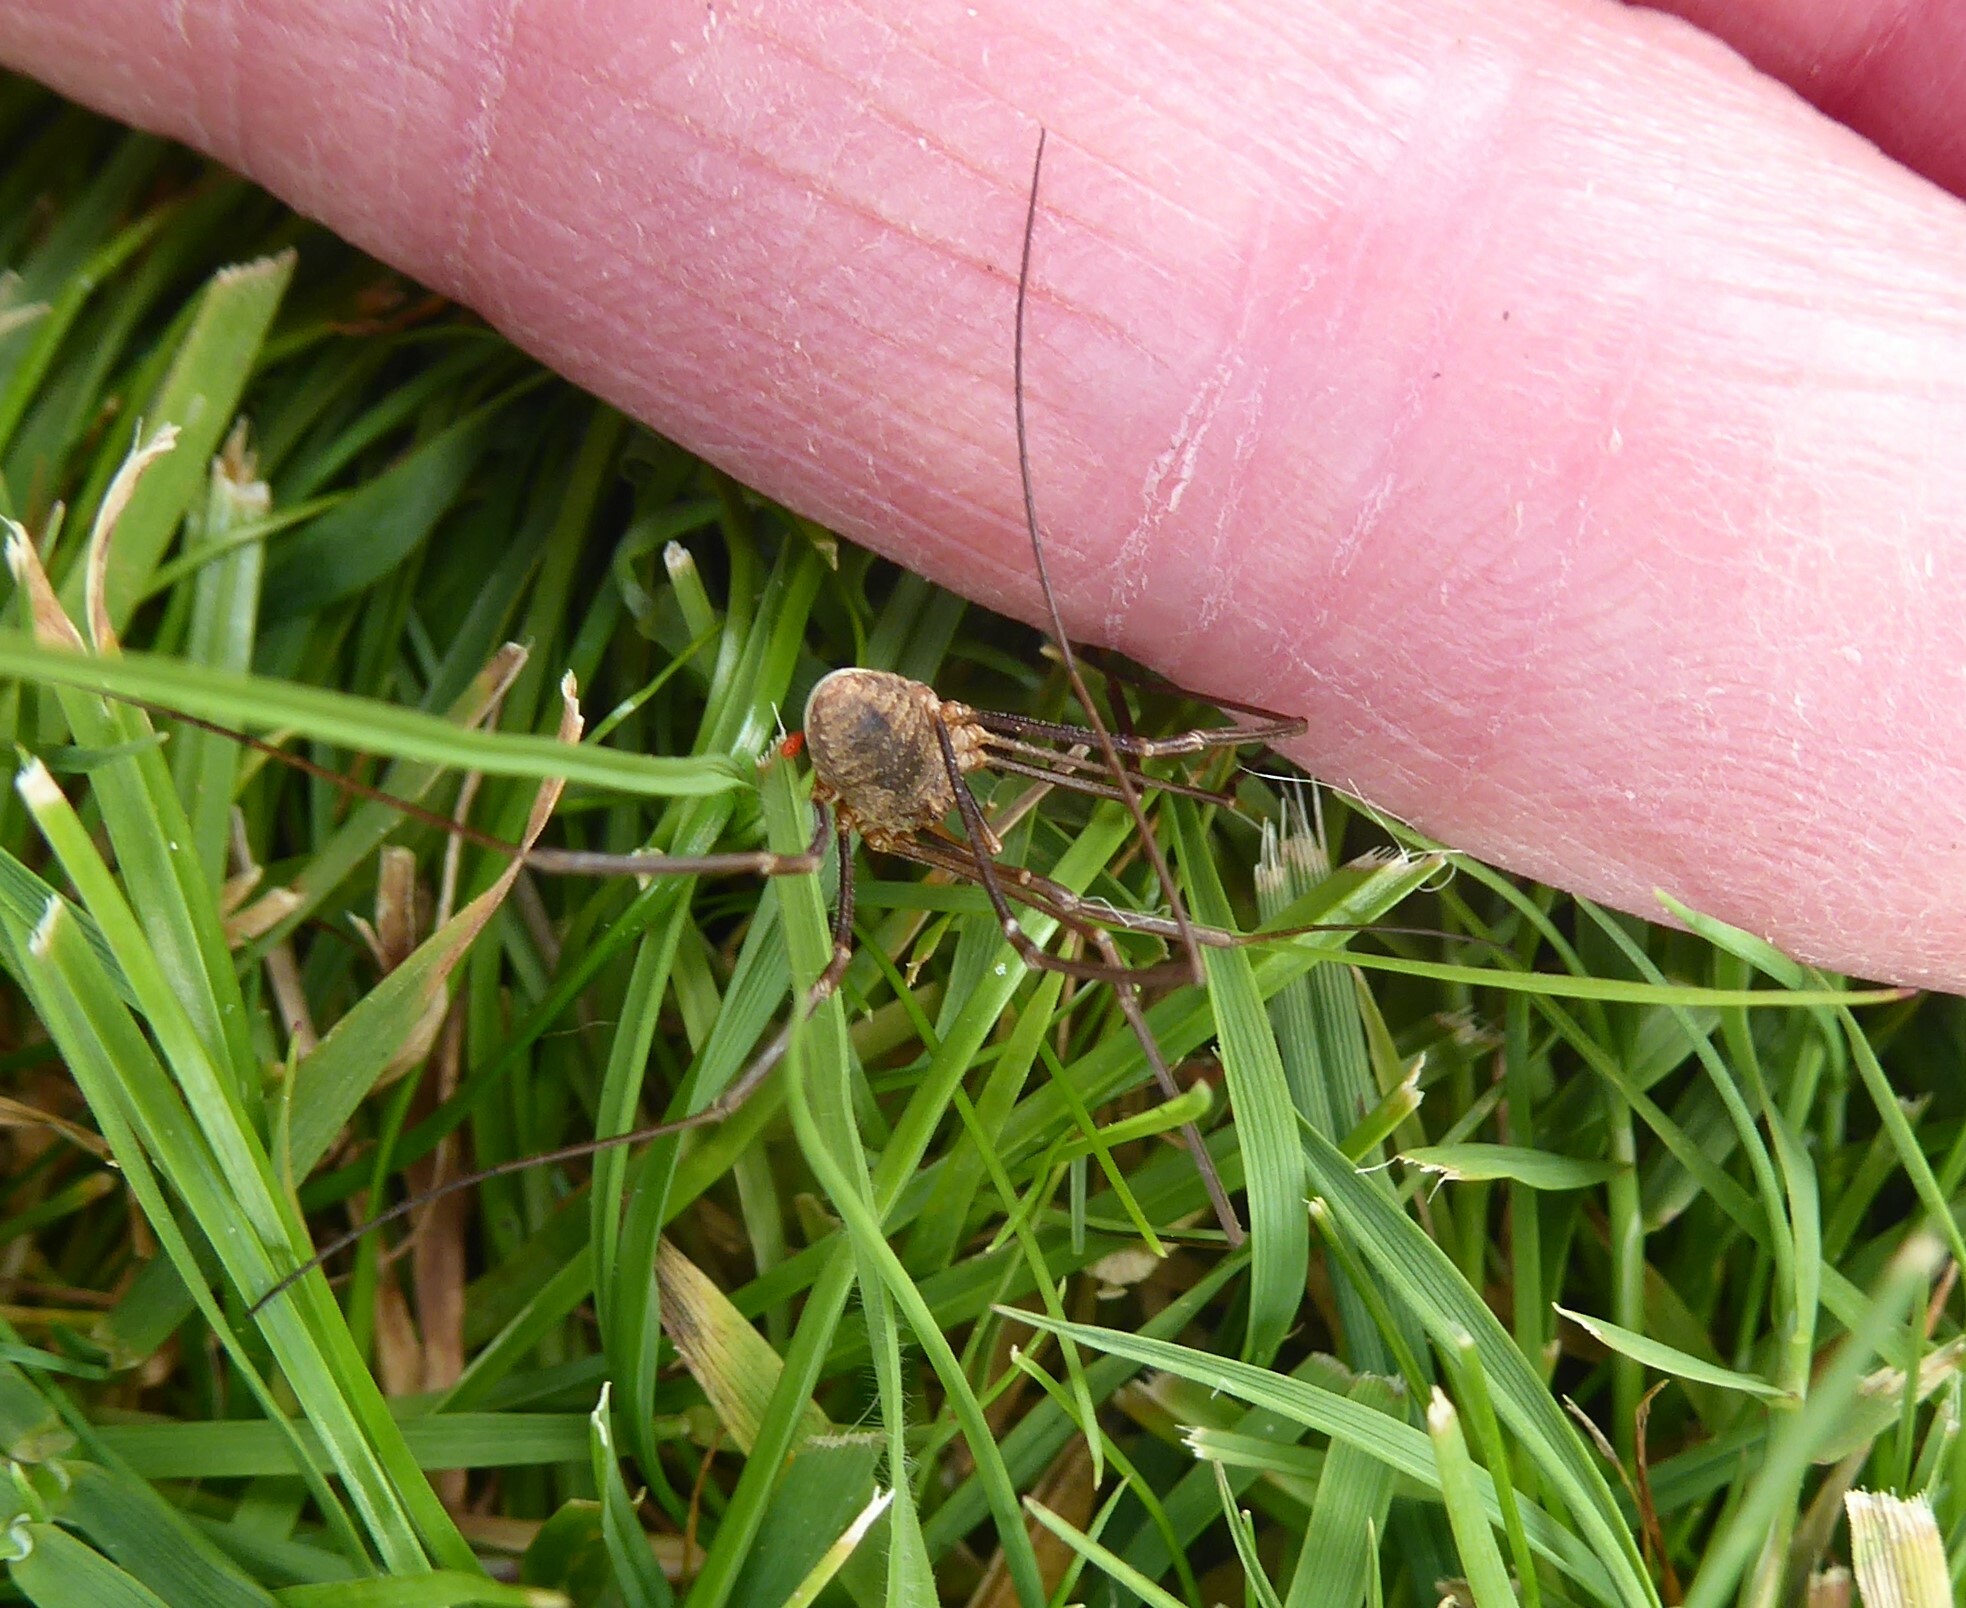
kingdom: Animalia
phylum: Arthropoda
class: Arachnida
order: Opiliones
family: Phalangiidae
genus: Phalangium
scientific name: Phalangium opilio
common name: Daddy longleg
